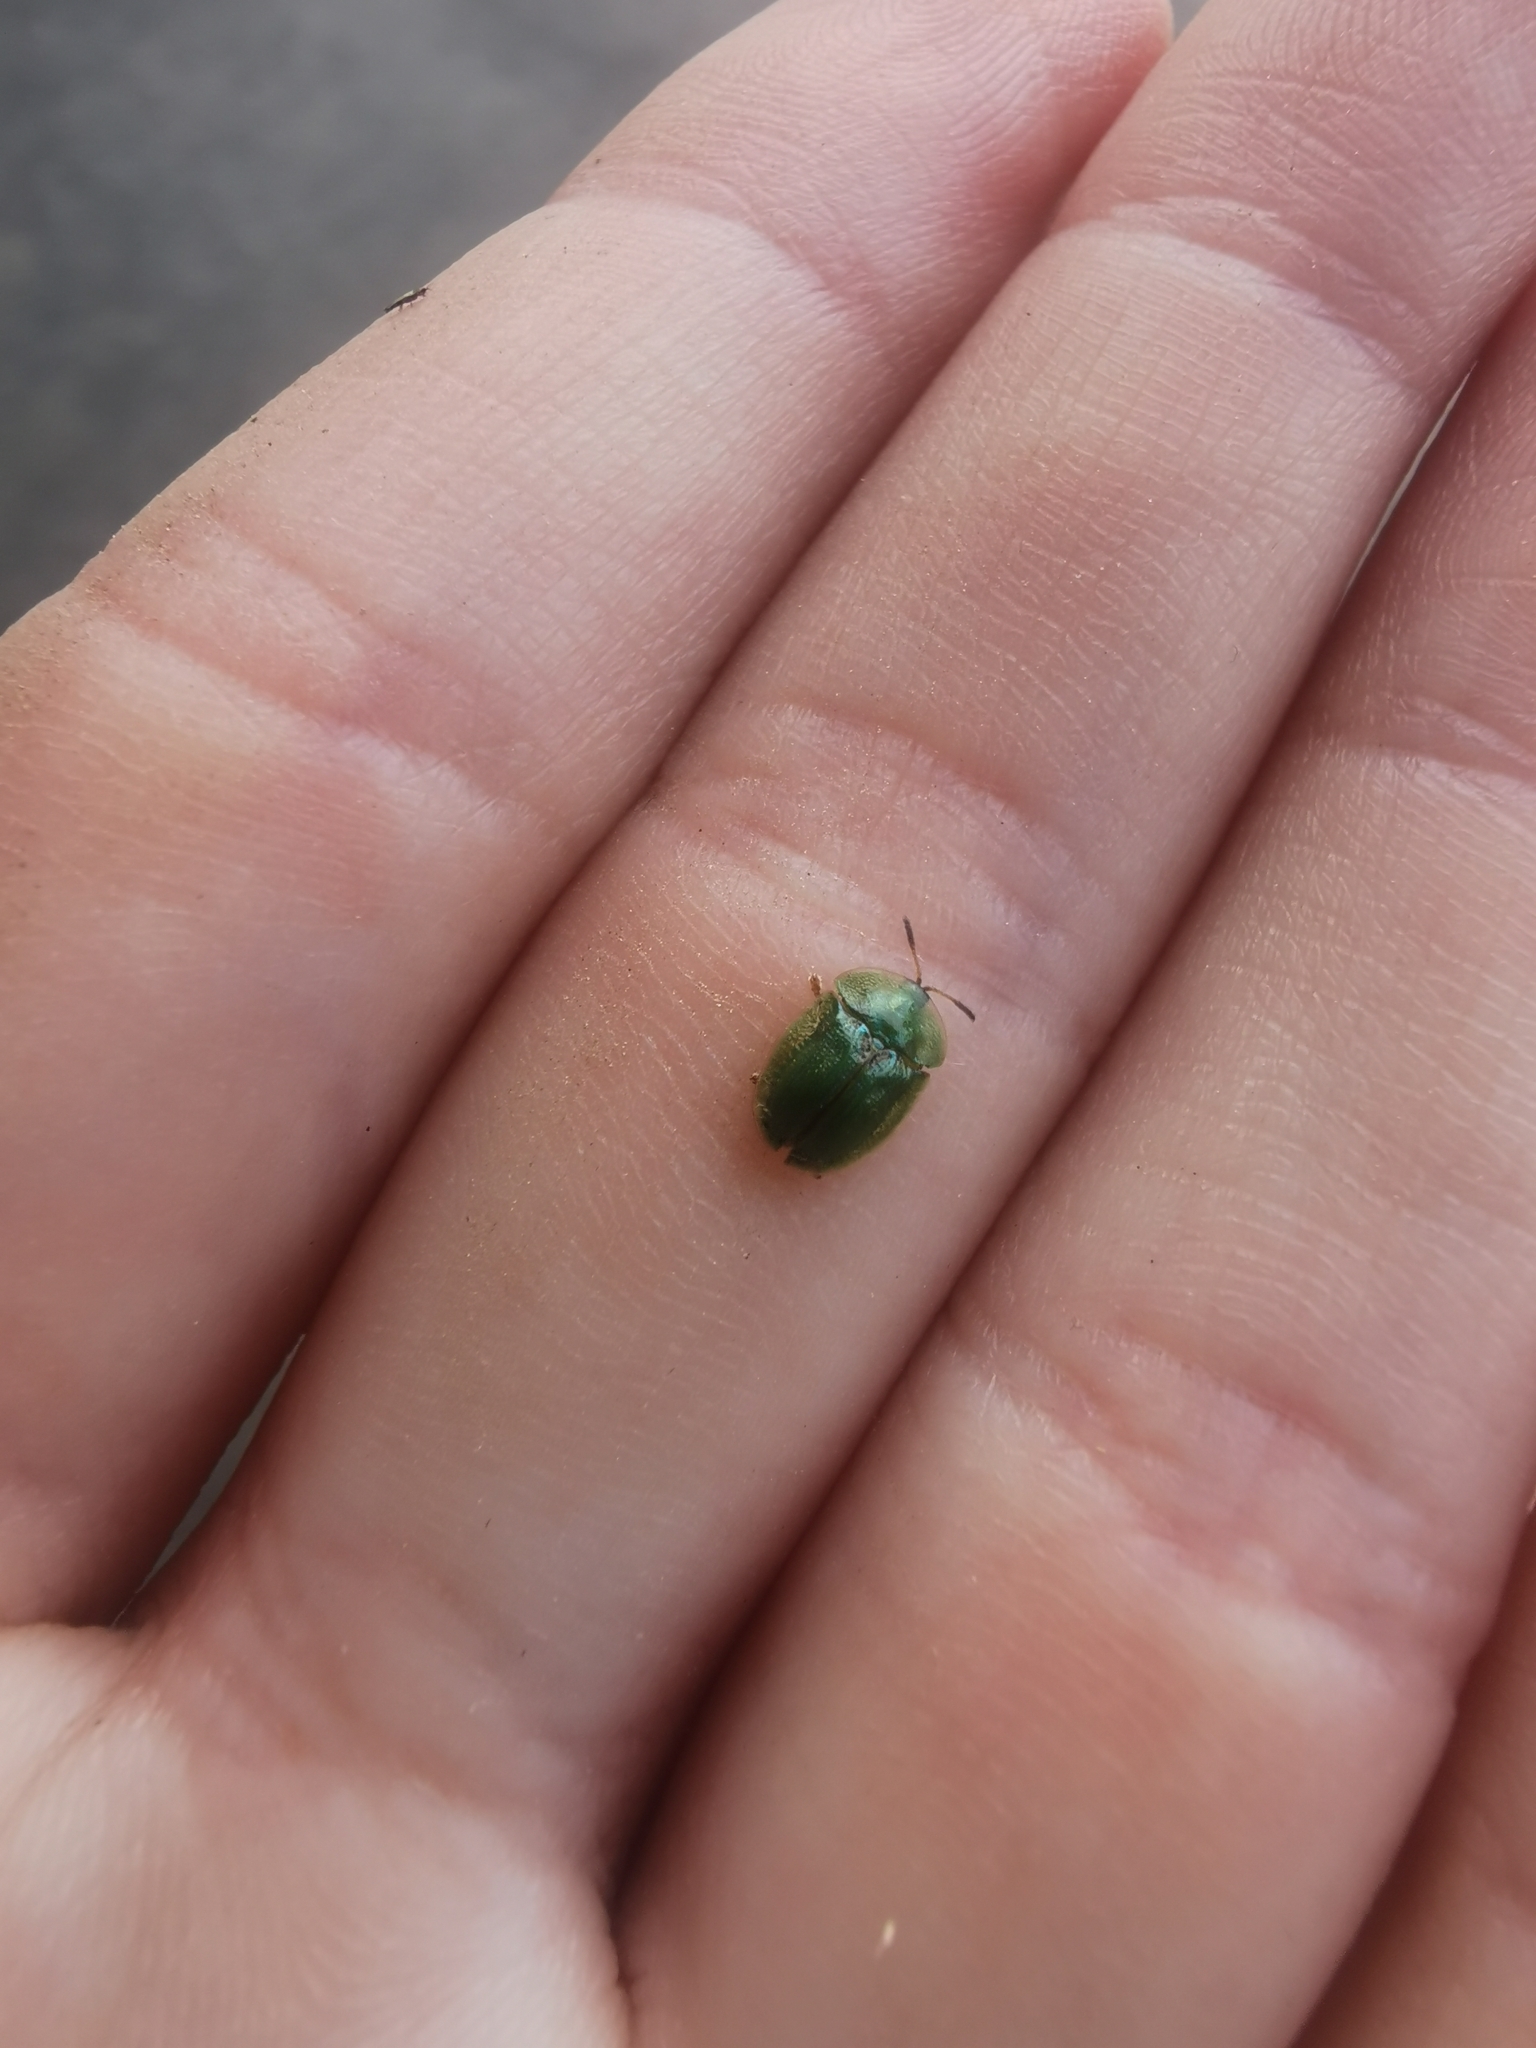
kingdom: Animalia
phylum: Arthropoda
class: Insecta
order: Coleoptera
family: Chrysomelidae
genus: Cassida
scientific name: Cassida rubiginosa
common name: Thistle tortoise beetle
